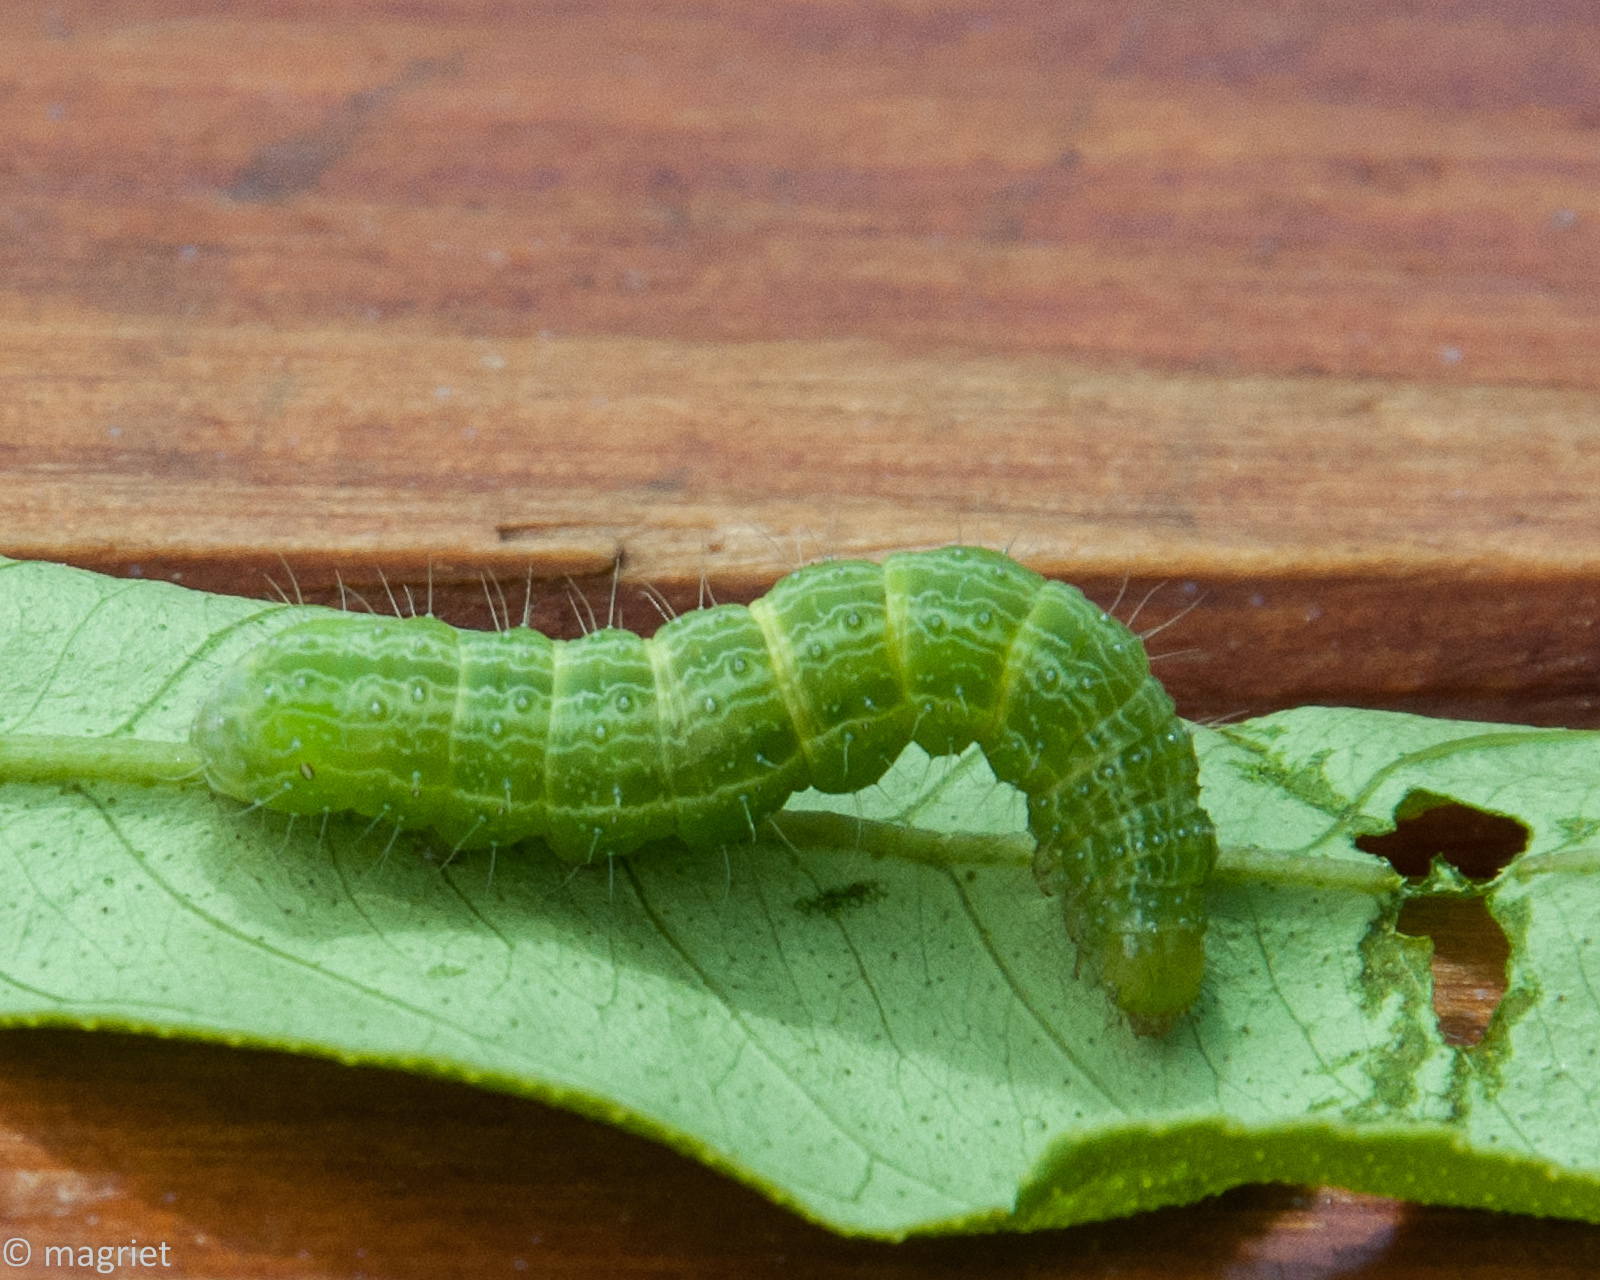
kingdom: Animalia
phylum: Arthropoda
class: Insecta
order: Lepidoptera
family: Noctuidae
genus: Thysanoplusia
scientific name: Thysanoplusia angulum
